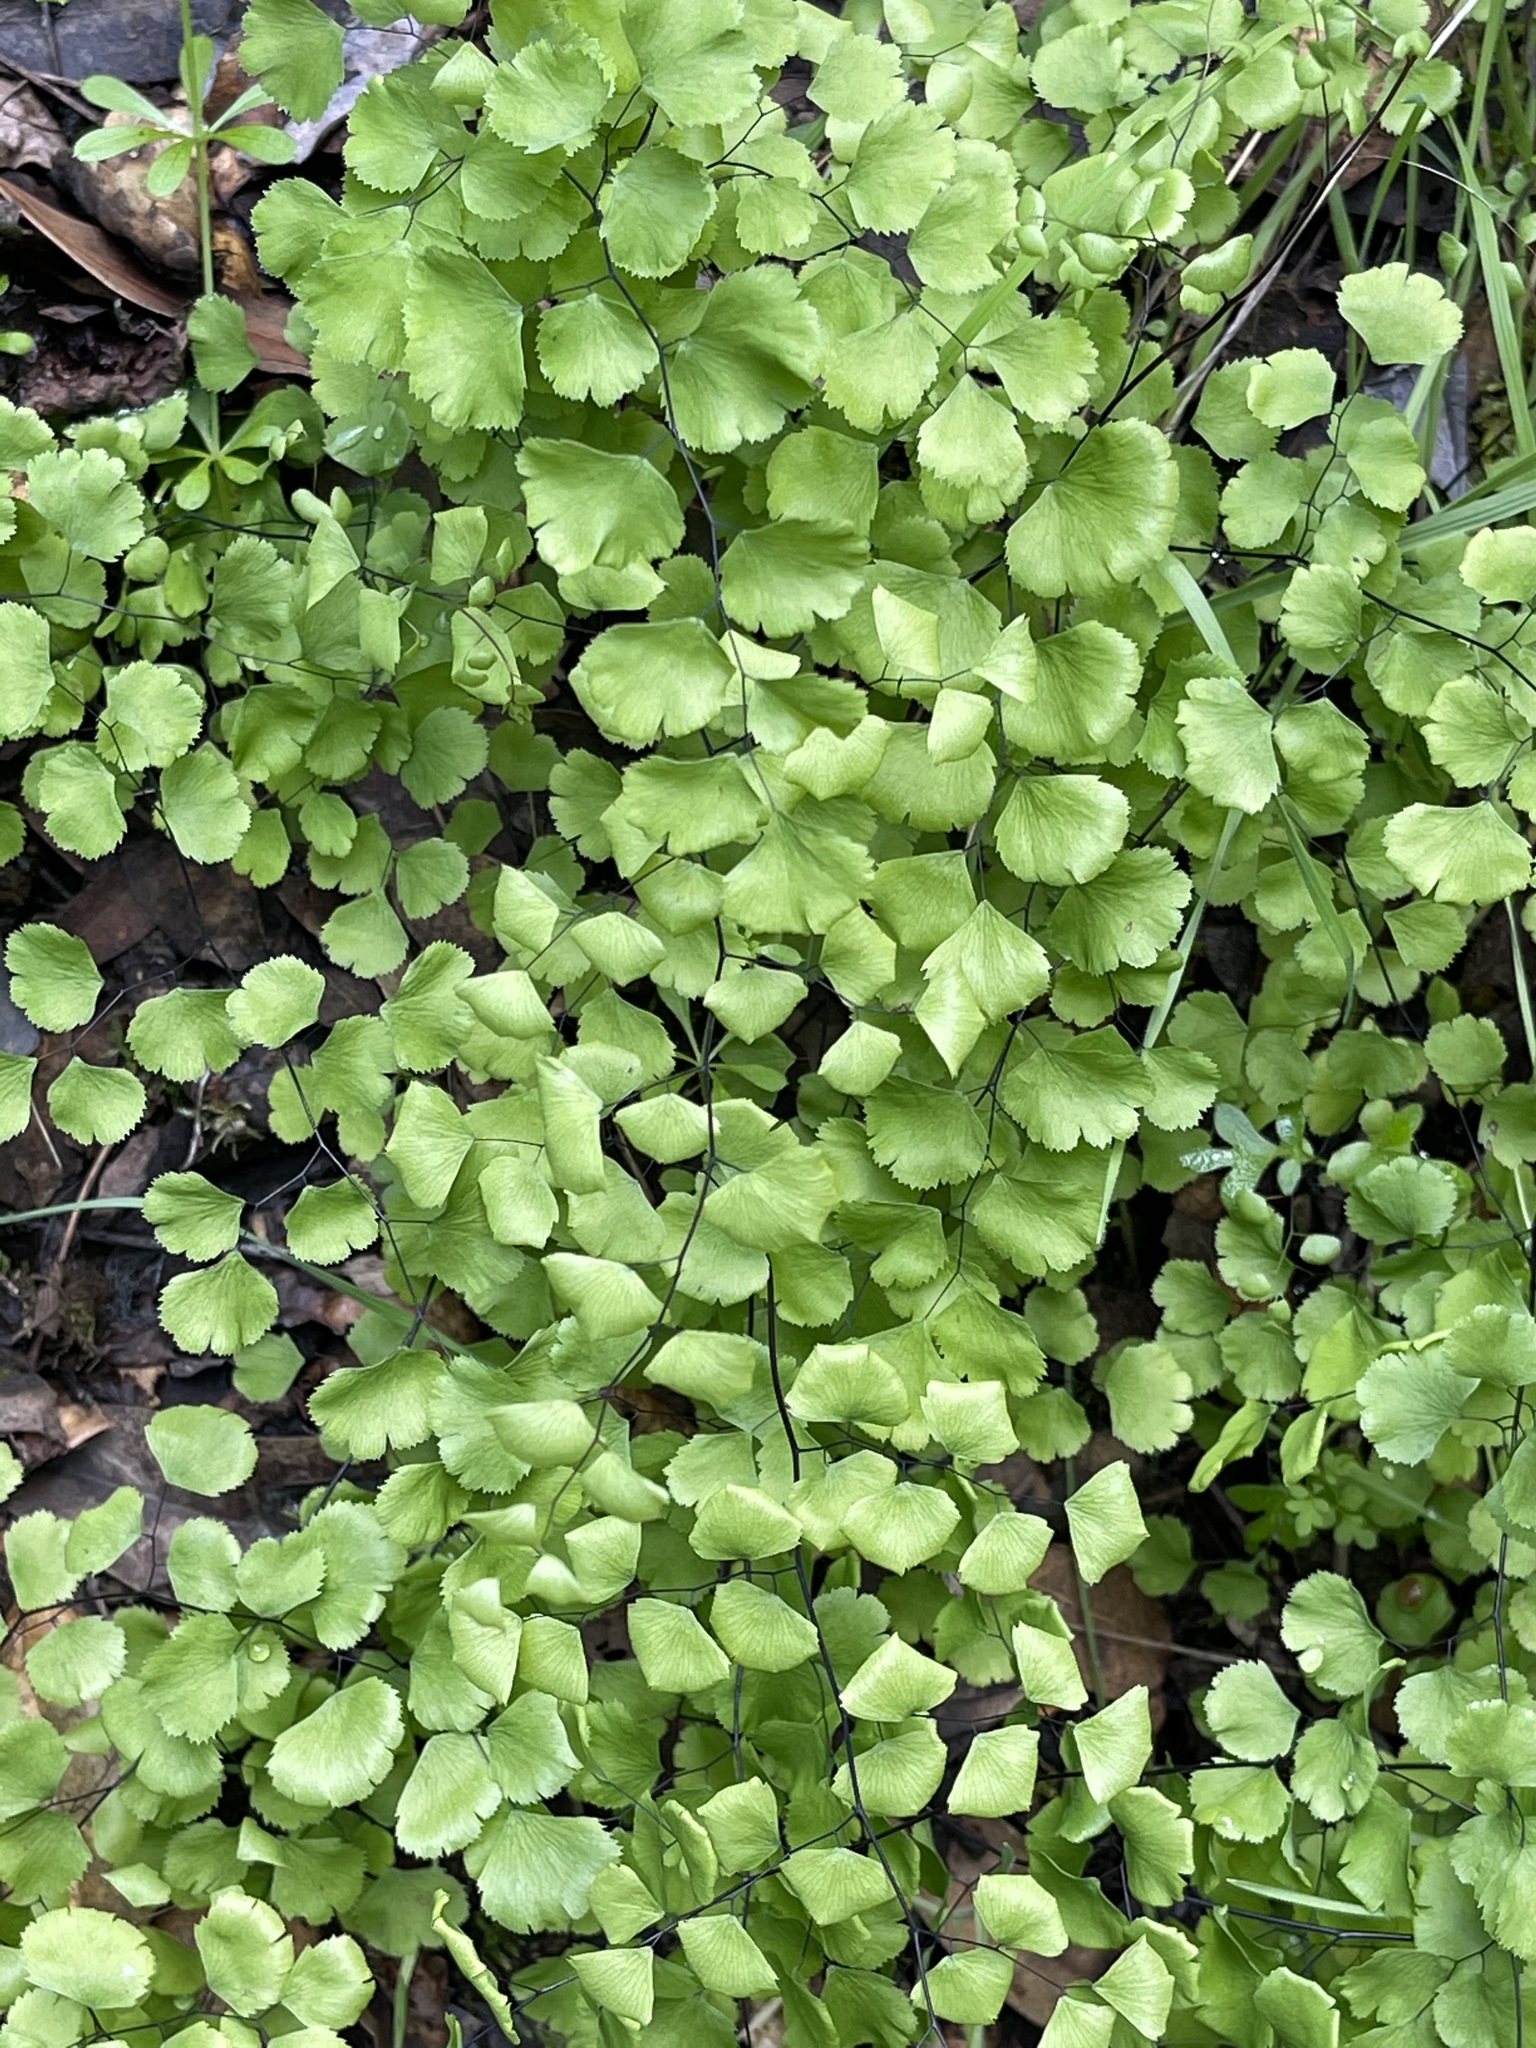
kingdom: Plantae
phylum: Tracheophyta
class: Polypodiopsida
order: Polypodiales
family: Pteridaceae
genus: Adiantum
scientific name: Adiantum jordanii
